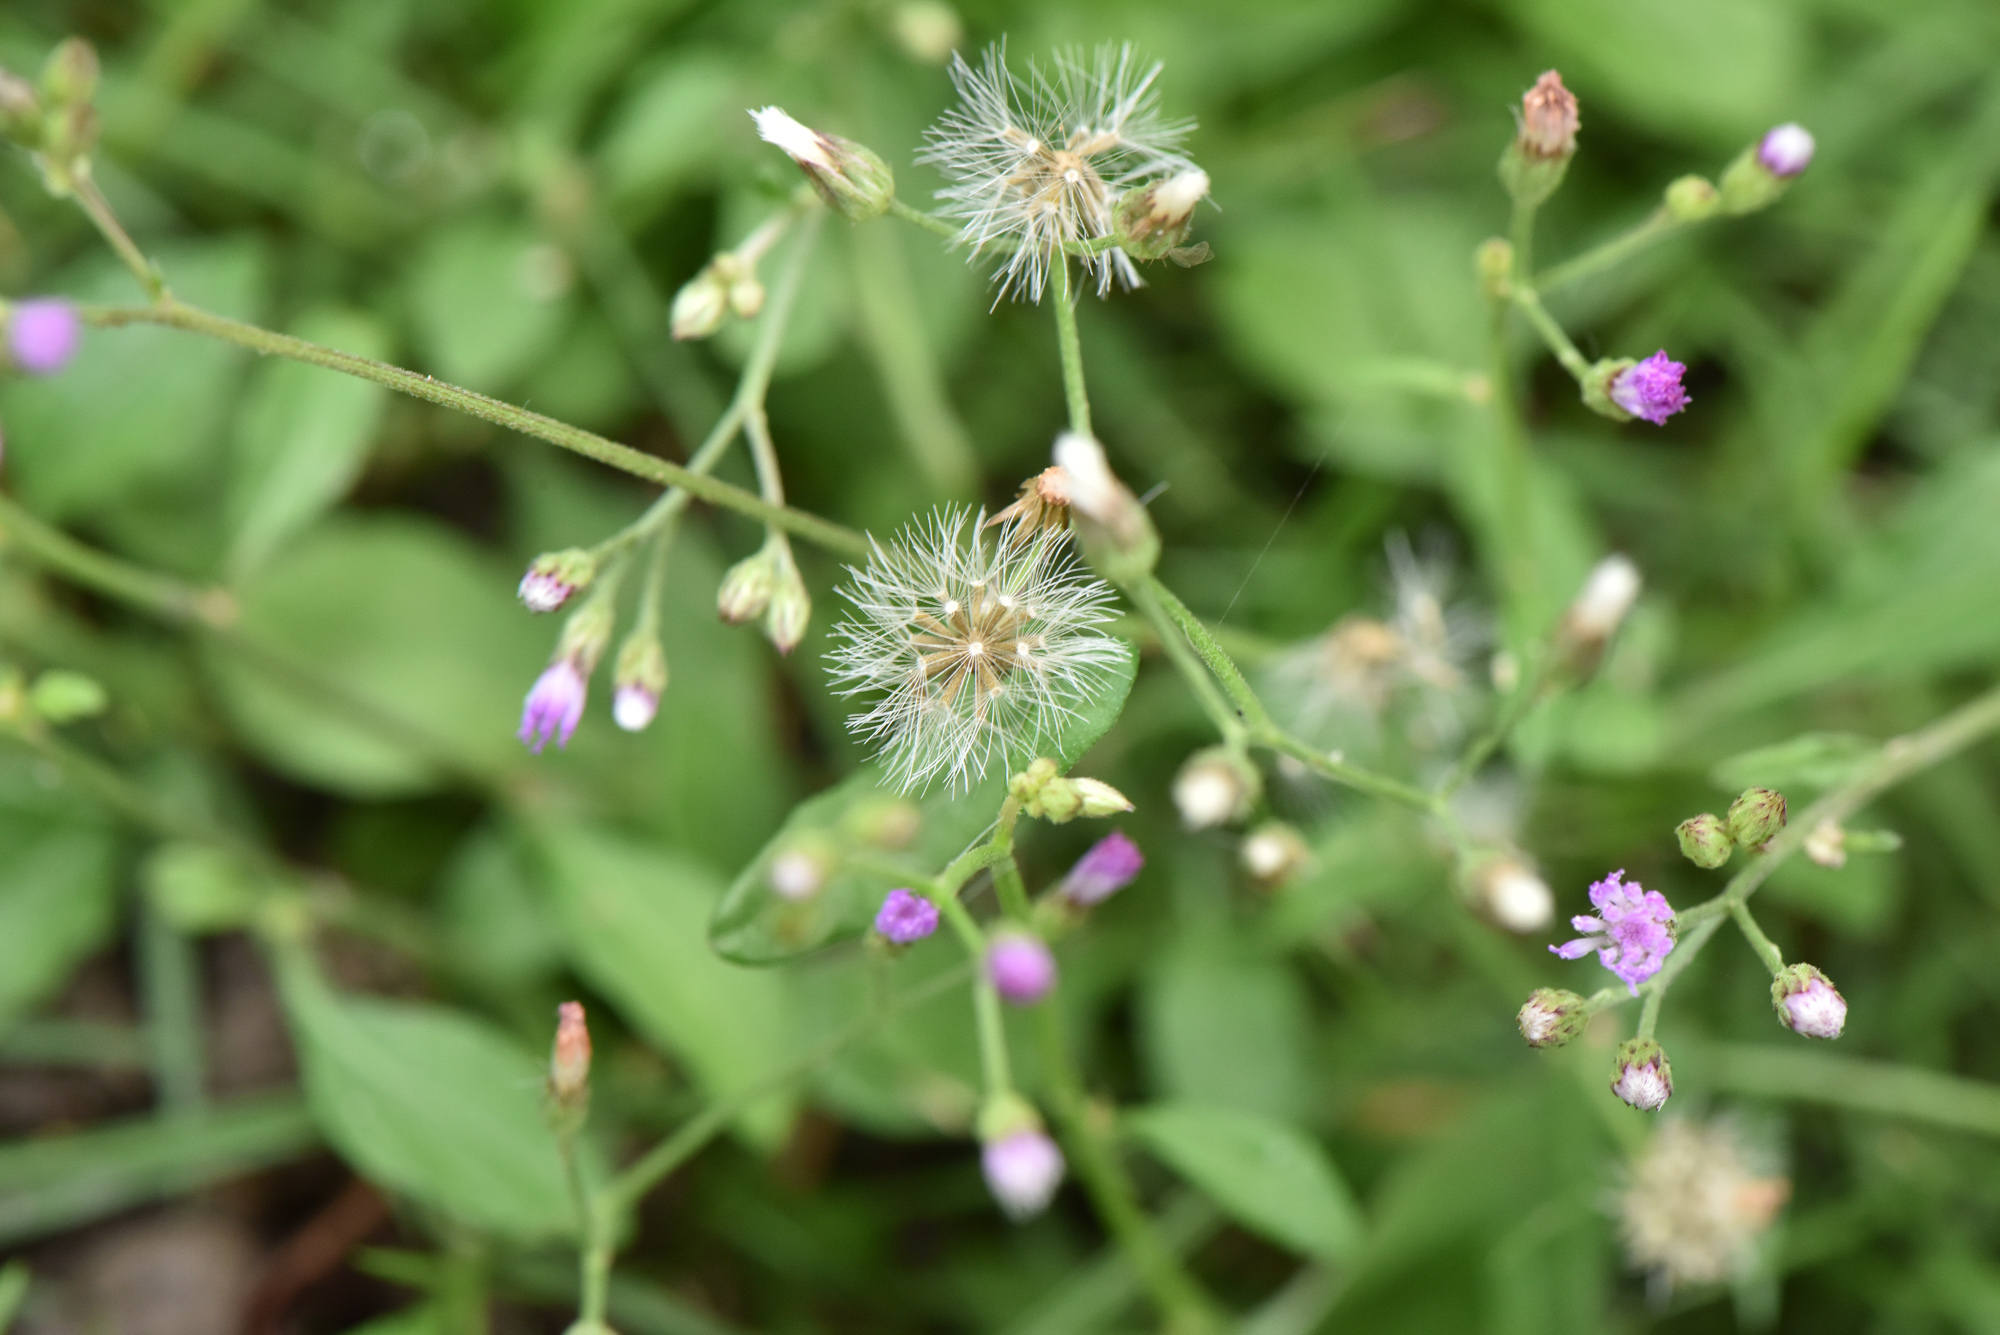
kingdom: Plantae
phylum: Tracheophyta
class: Magnoliopsida
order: Asterales
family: Asteraceae
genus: Cyanthillium
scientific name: Cyanthillium cinereum
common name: Little ironweed
